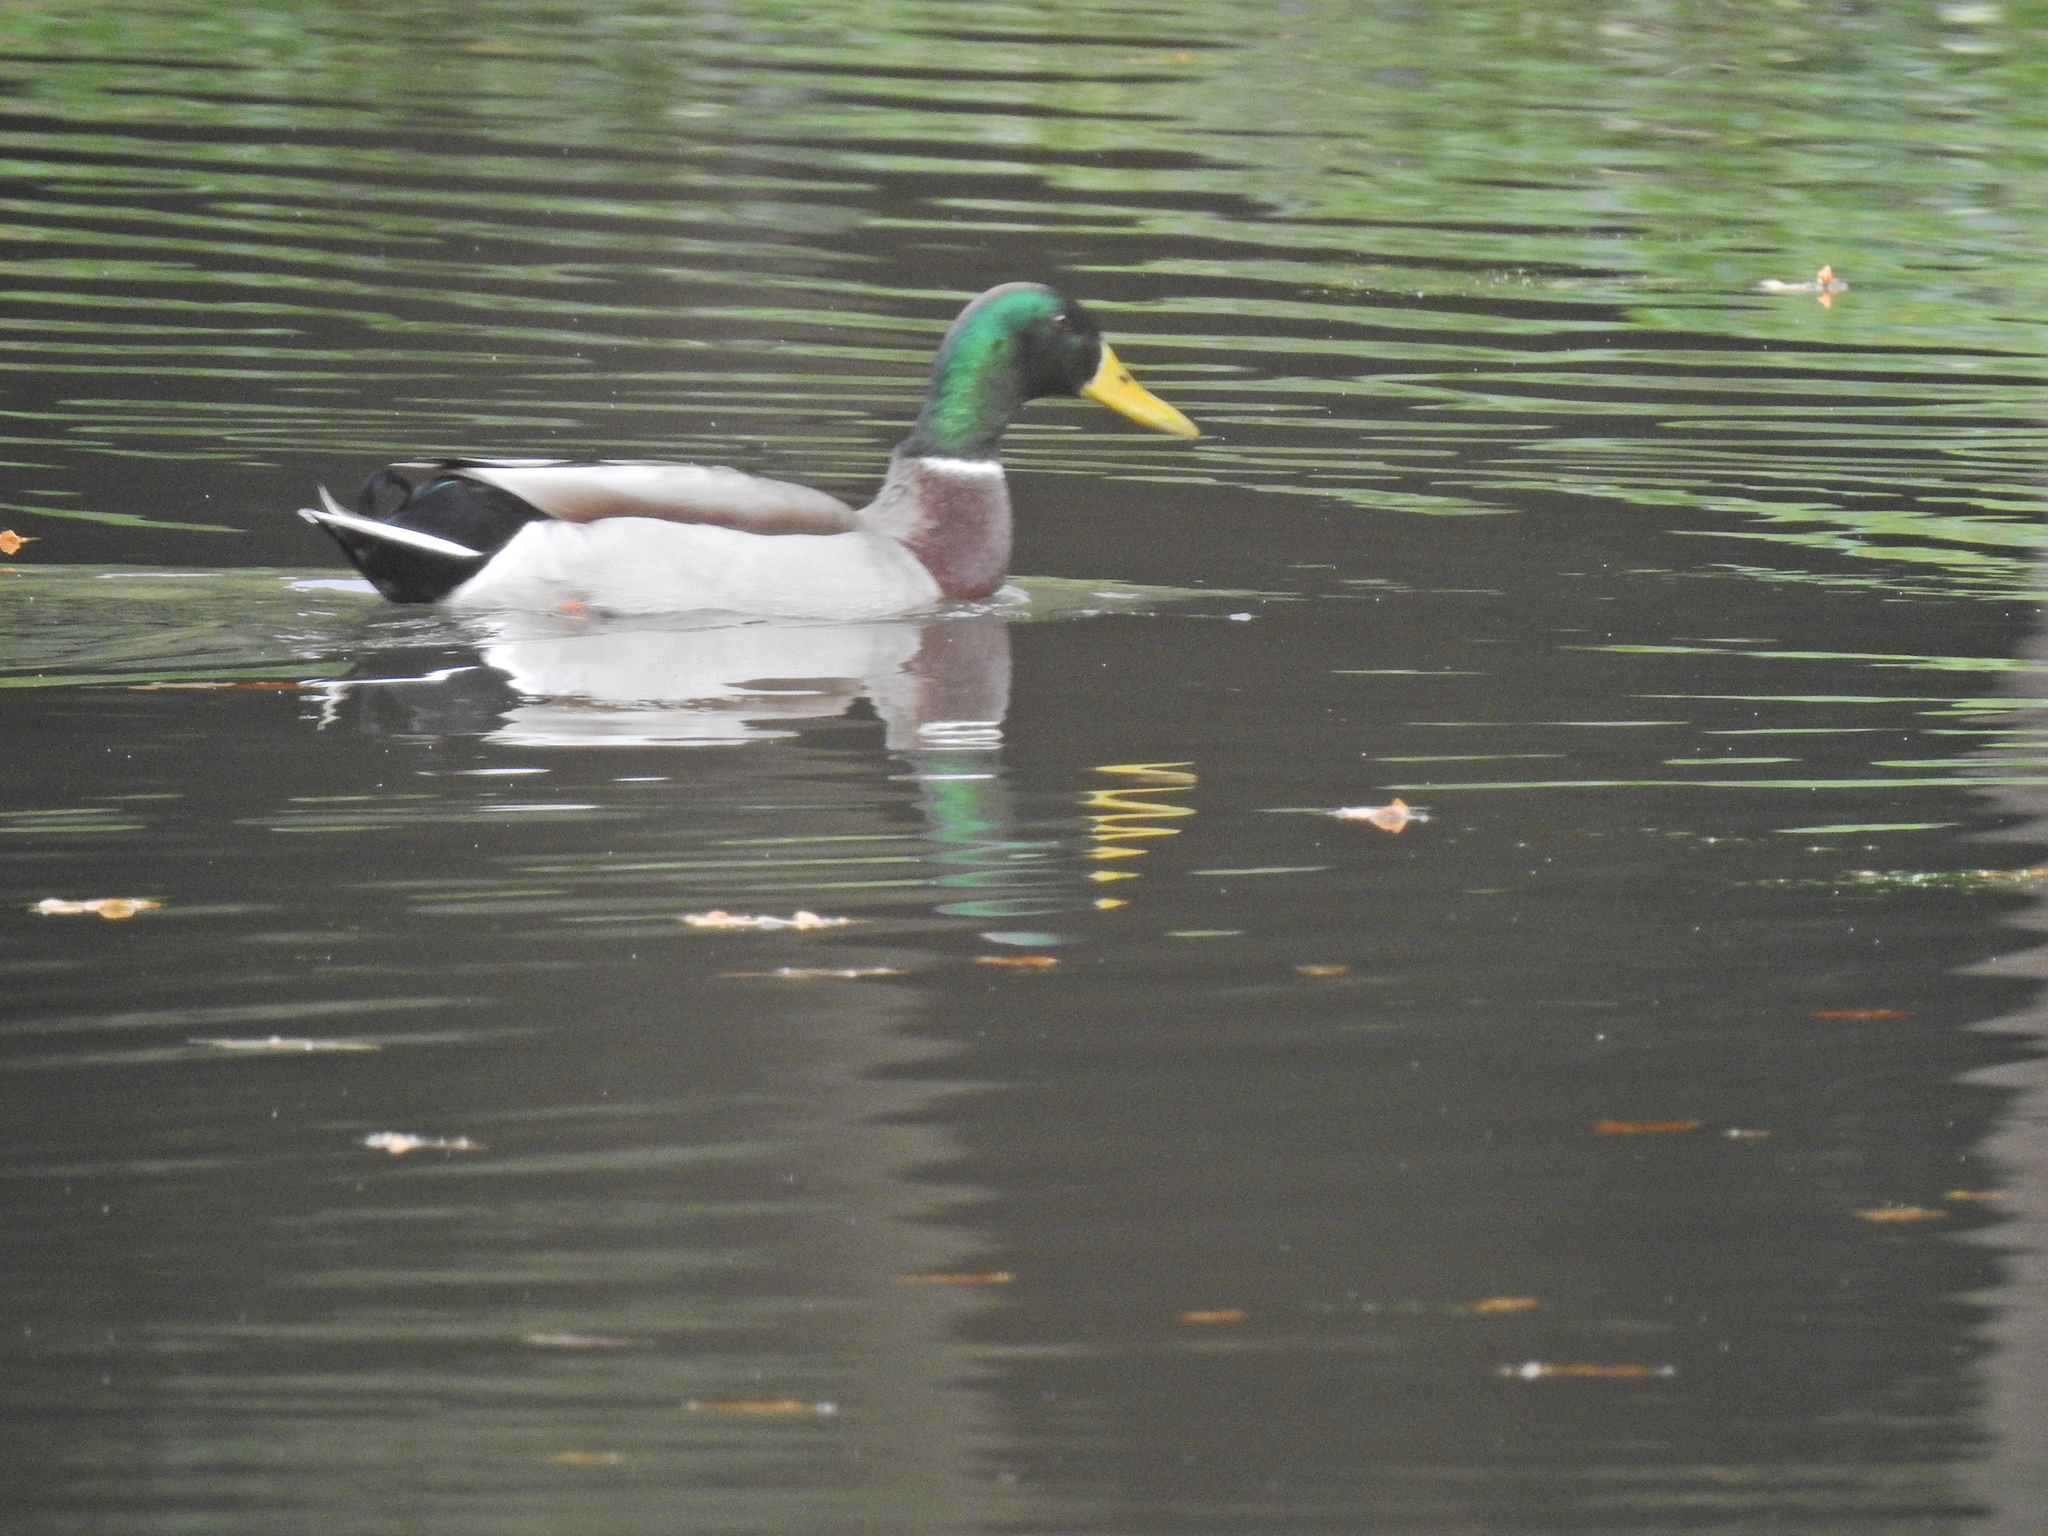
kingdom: Animalia
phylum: Chordata
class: Aves
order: Anseriformes
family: Anatidae
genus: Anas
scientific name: Anas platyrhynchos
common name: Mallard
